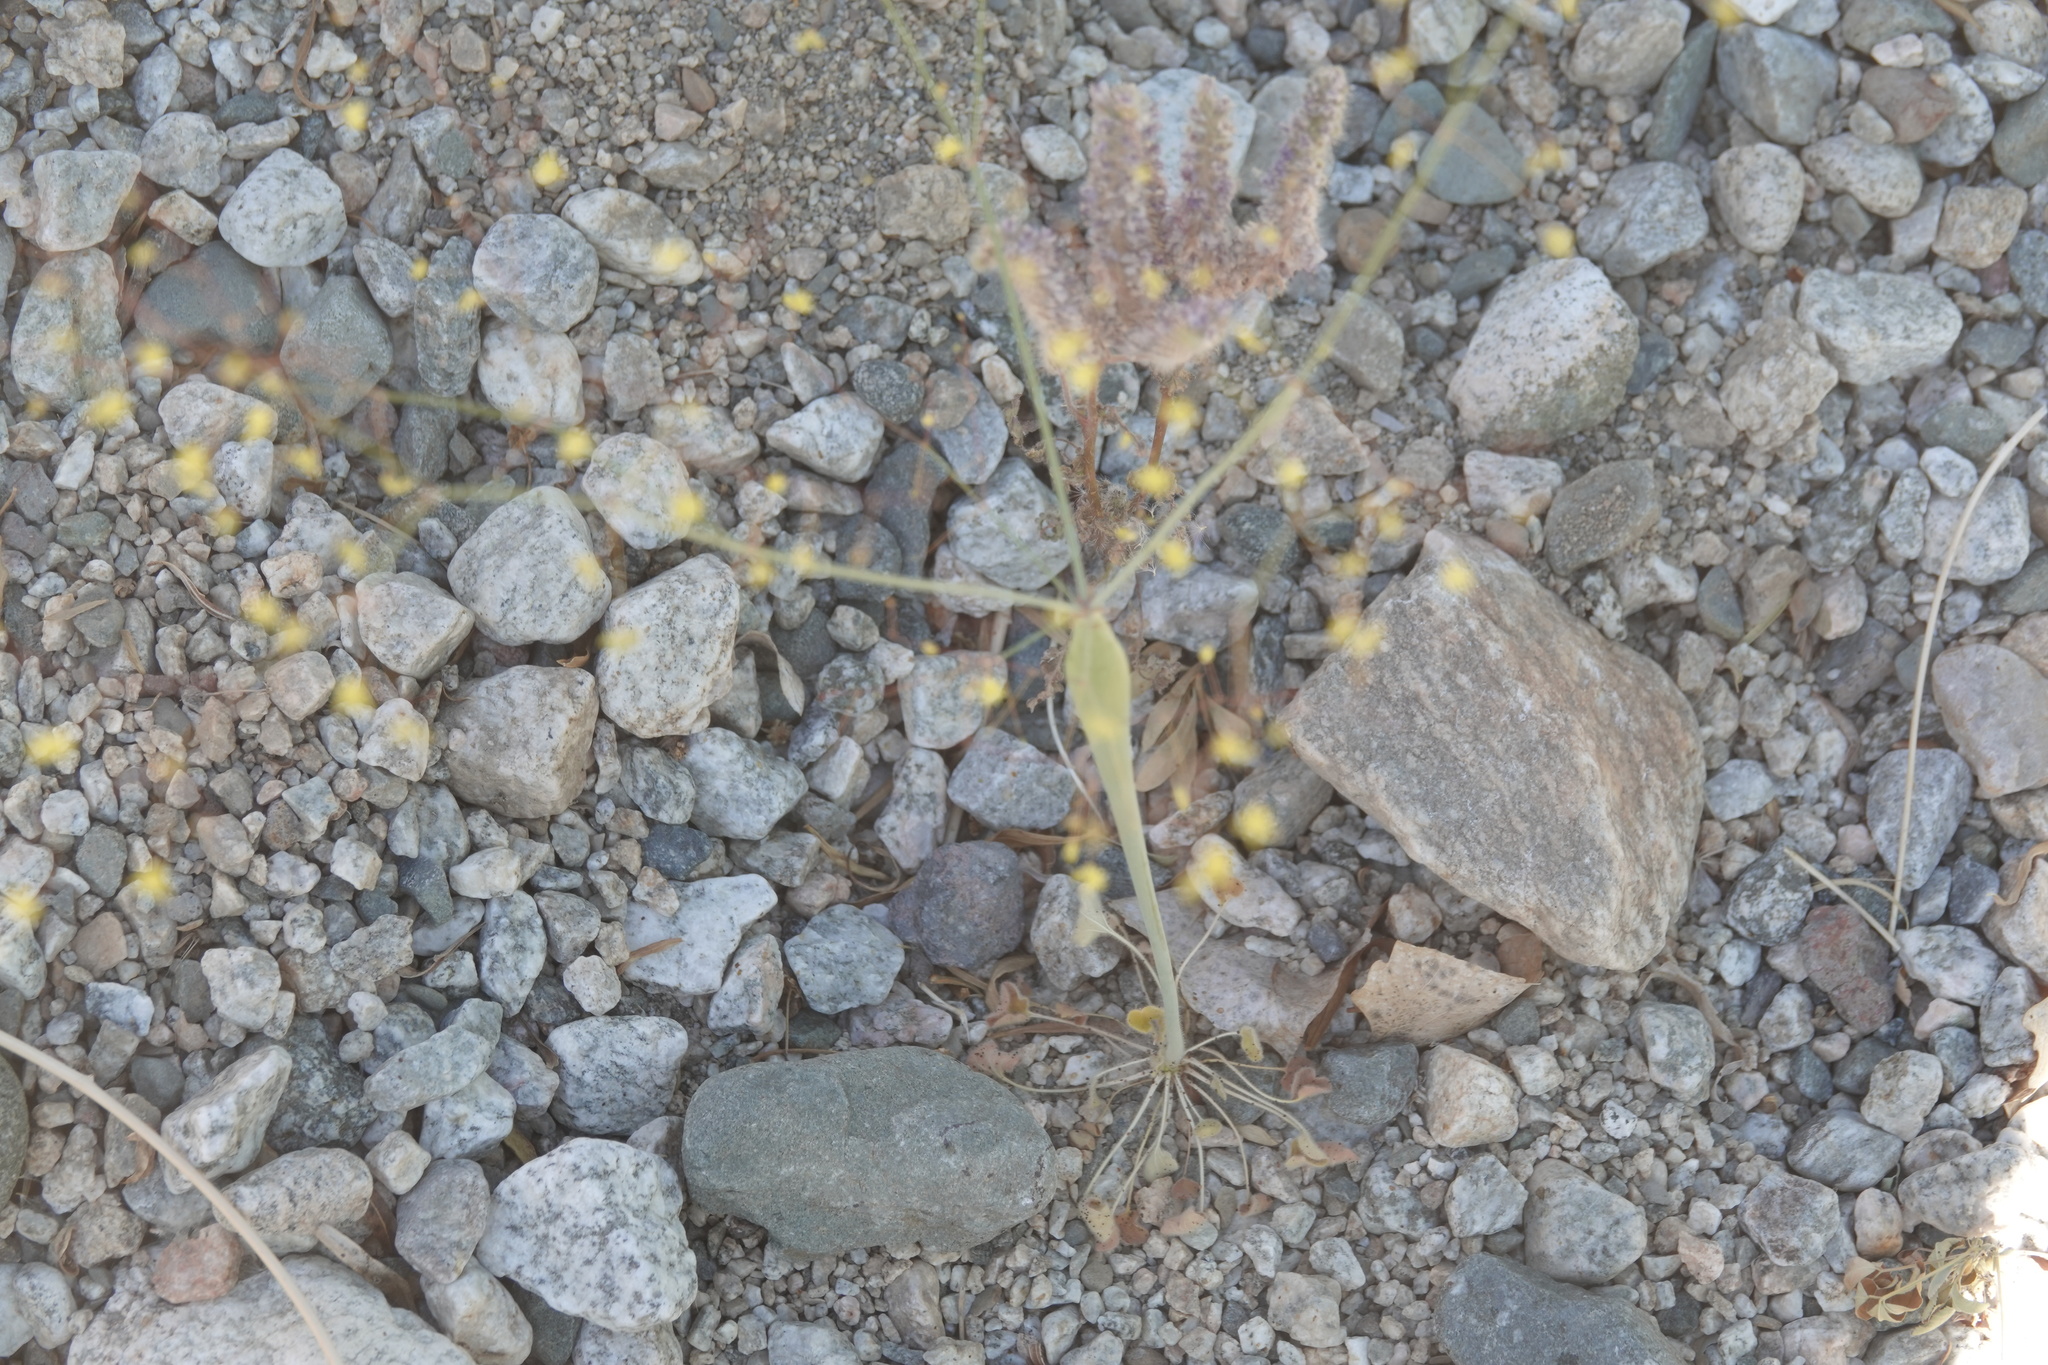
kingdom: Plantae
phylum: Tracheophyta
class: Magnoliopsida
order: Caryophyllales
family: Polygonaceae
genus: Eriogonum
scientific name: Eriogonum inflatum
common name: Desert trumpet
